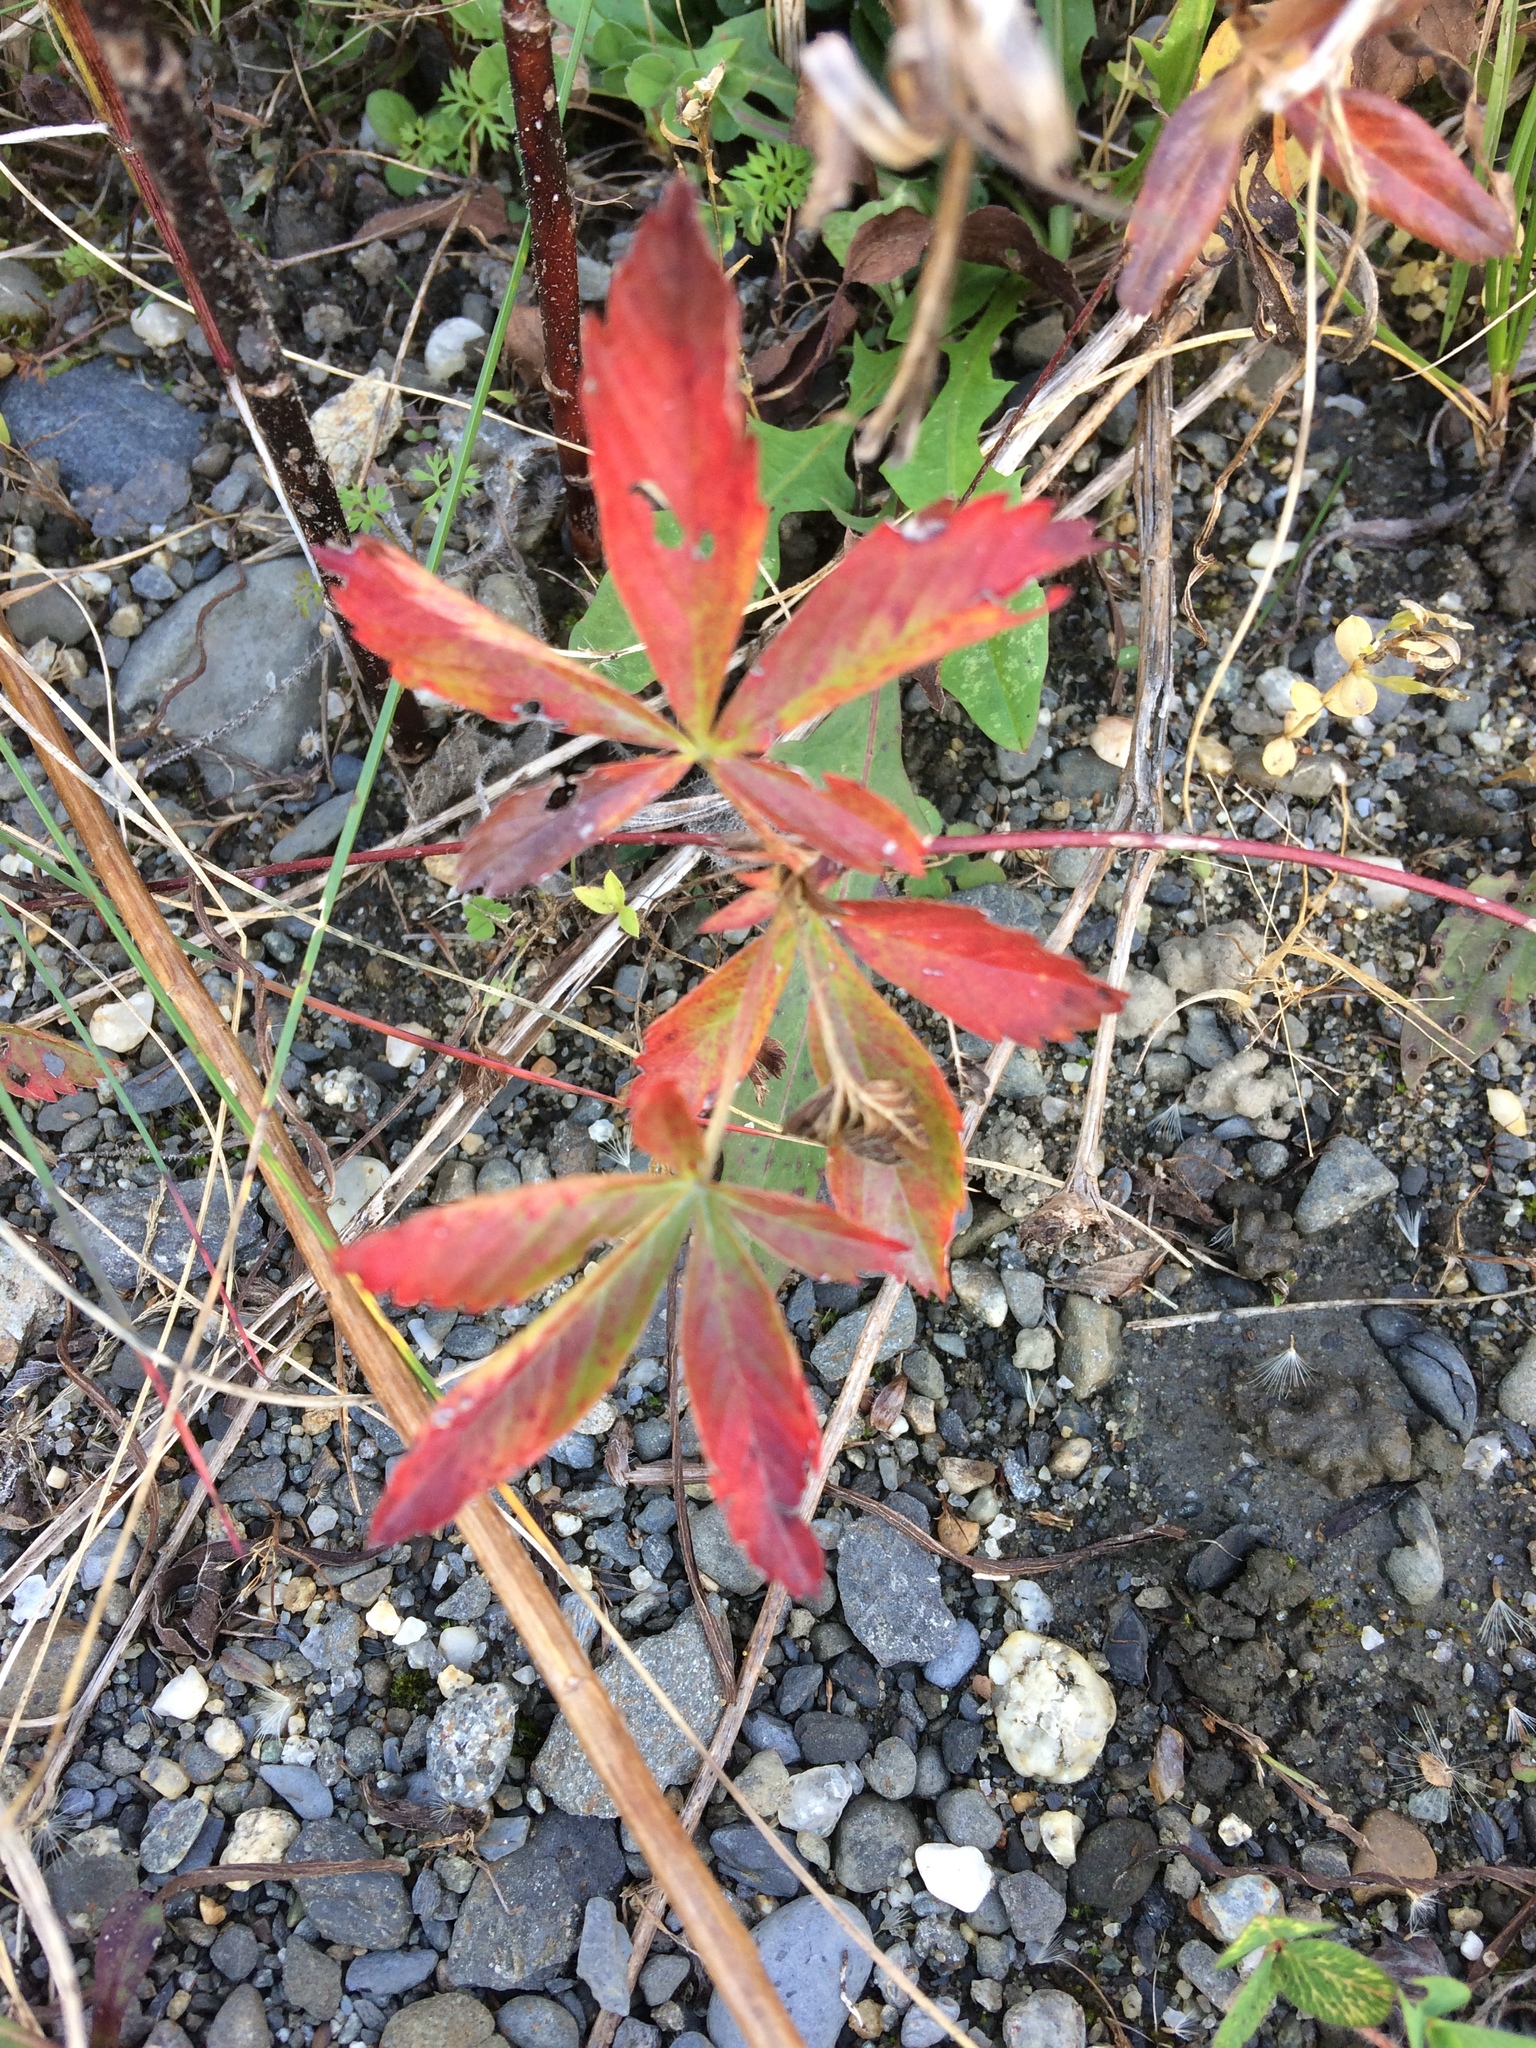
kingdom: Plantae
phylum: Tracheophyta
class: Magnoliopsida
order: Rosales
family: Rosaceae
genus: Potentilla
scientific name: Potentilla simplex
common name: Old field cinquefoil
